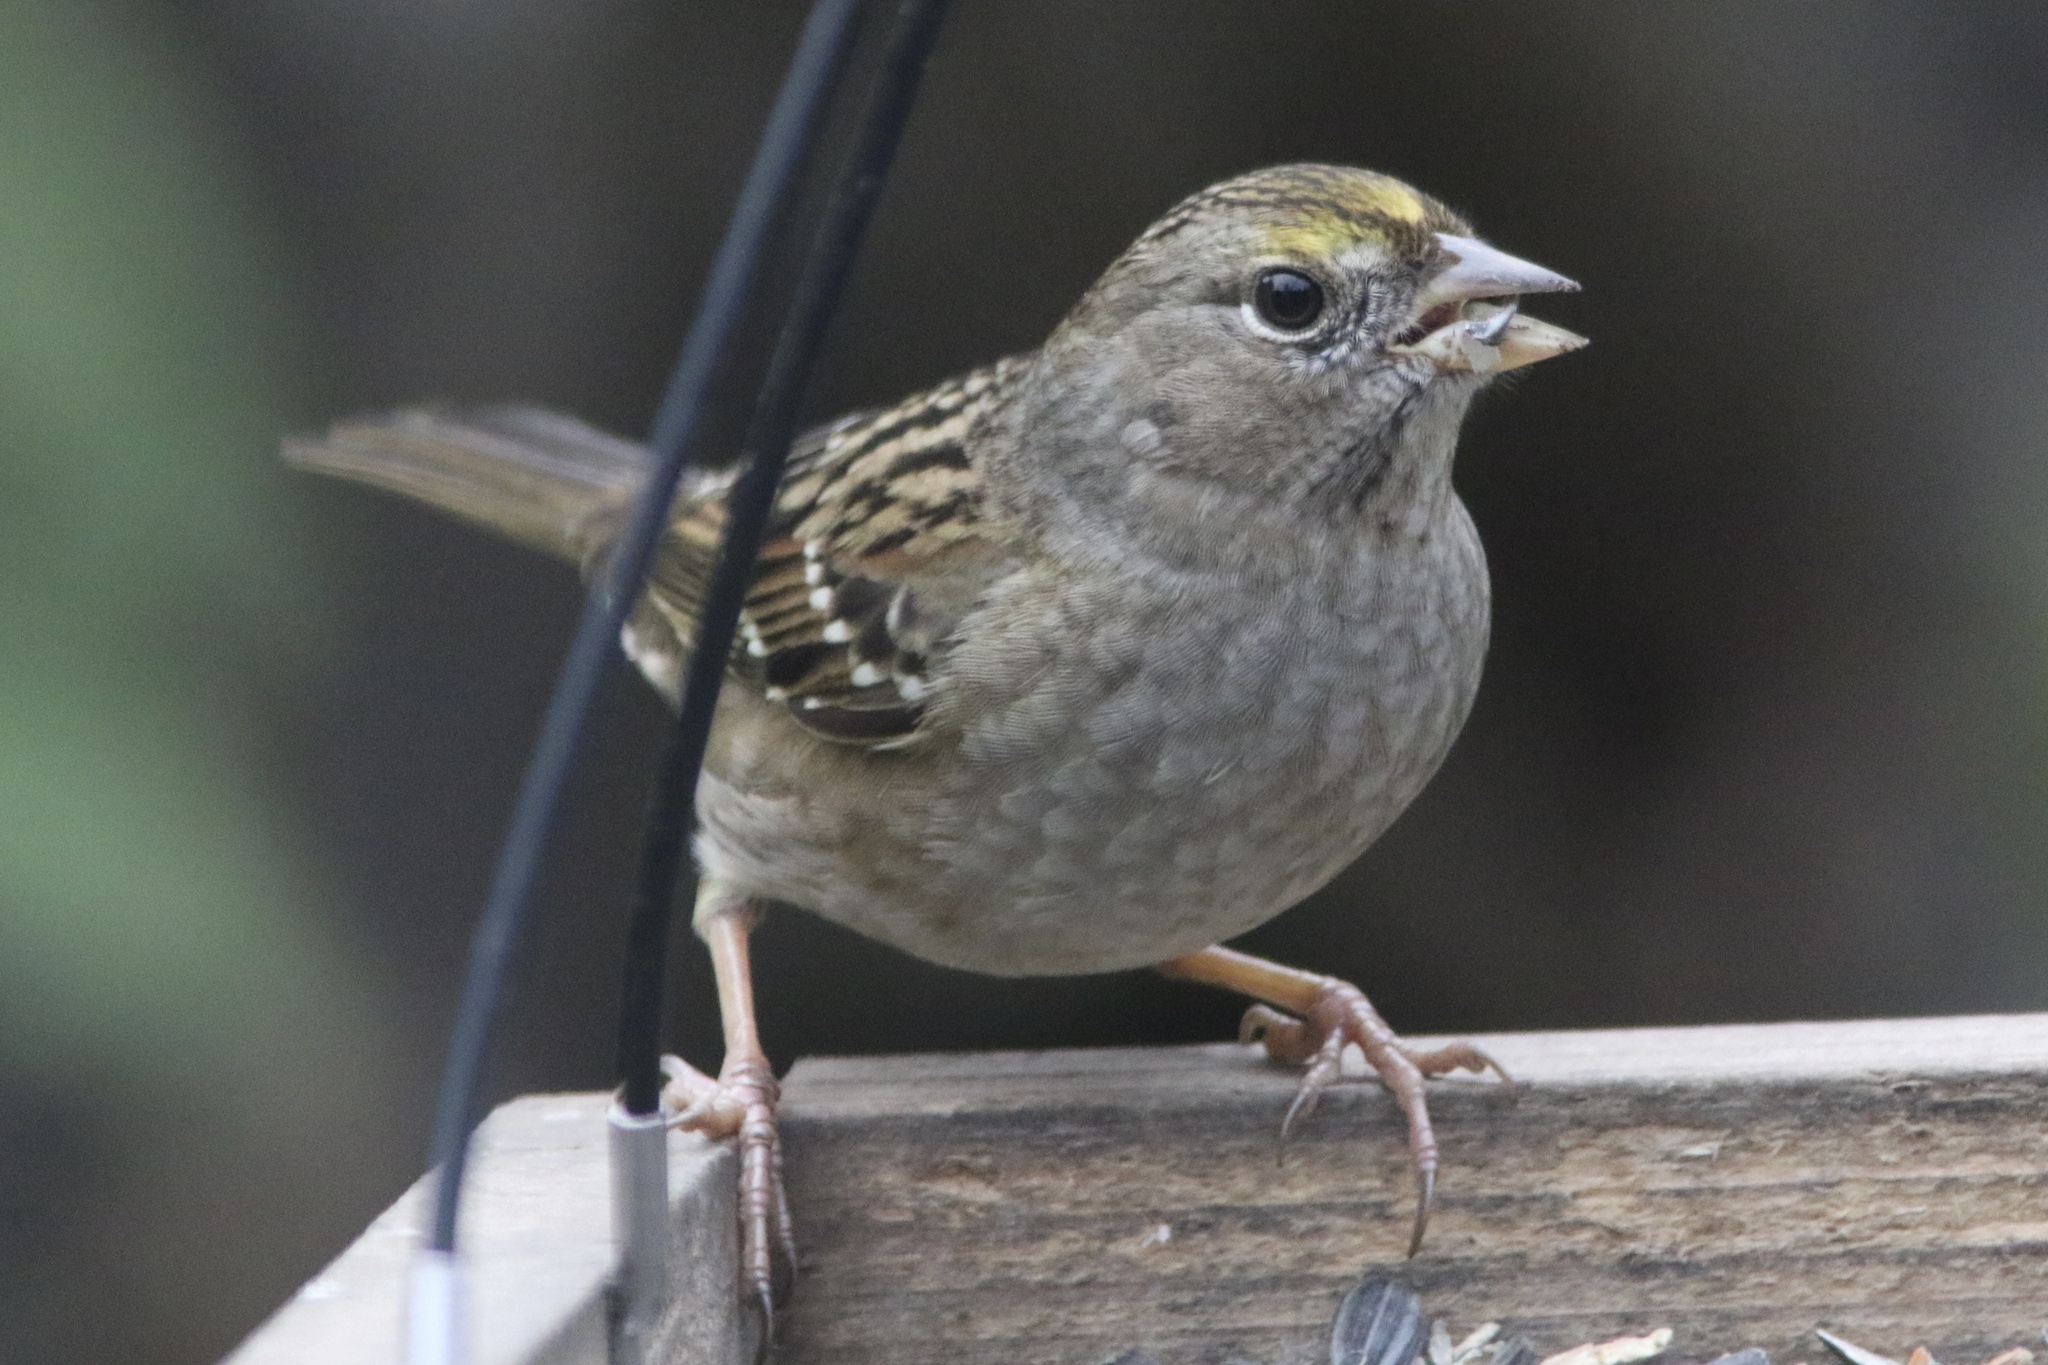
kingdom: Animalia
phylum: Chordata
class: Aves
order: Passeriformes
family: Passerellidae
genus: Zonotrichia
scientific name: Zonotrichia atricapilla
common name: Golden-crowned sparrow
